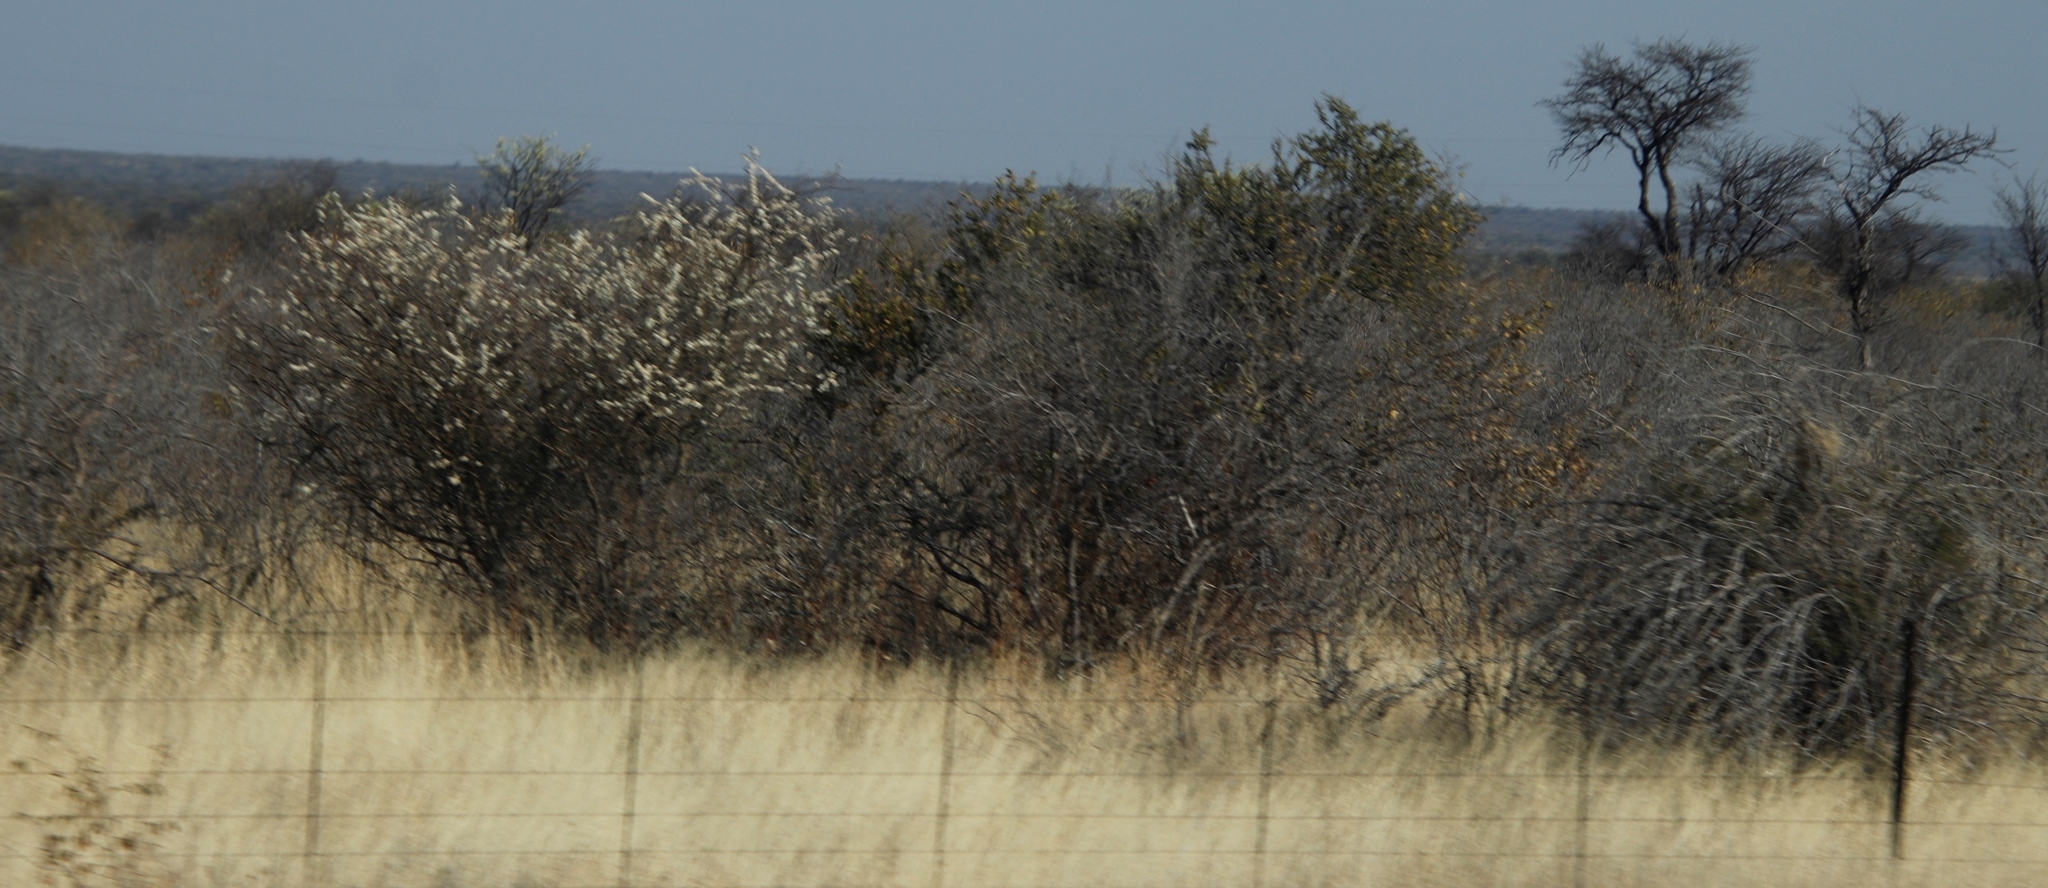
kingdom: Plantae
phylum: Tracheophyta
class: Magnoliopsida
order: Fabales
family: Fabaceae
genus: Senegalia
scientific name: Senegalia mellifera
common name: Hookthorn
